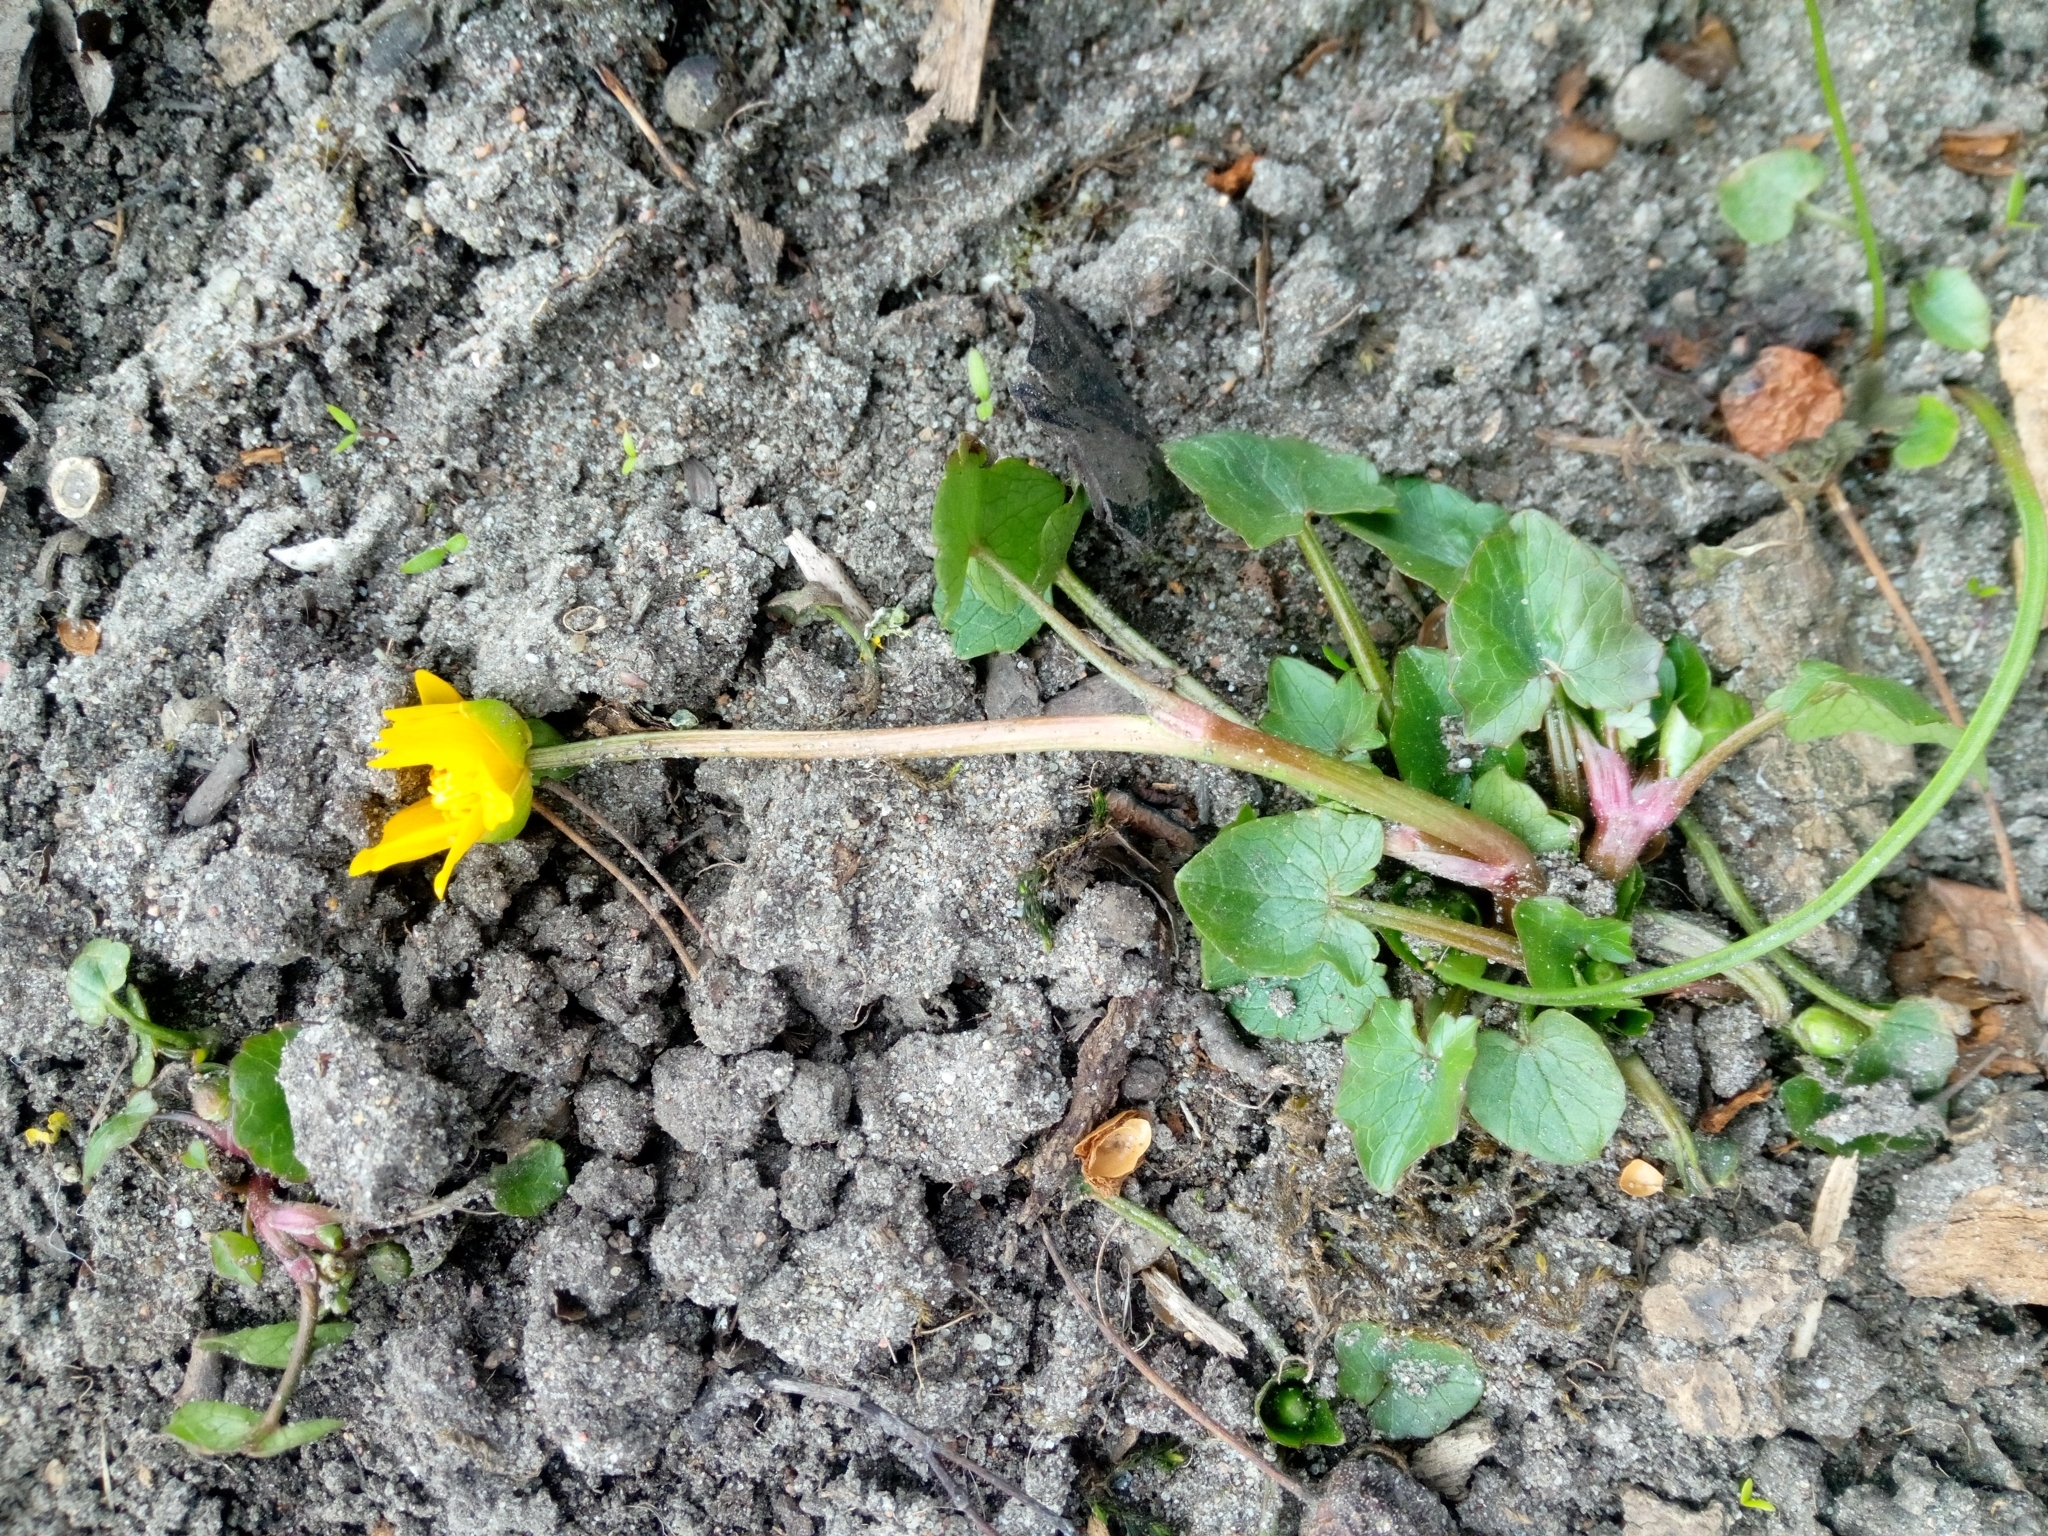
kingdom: Plantae
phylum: Tracheophyta
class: Magnoliopsida
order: Ranunculales
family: Ranunculaceae
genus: Ficaria
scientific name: Ficaria verna
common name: Lesser celandine
